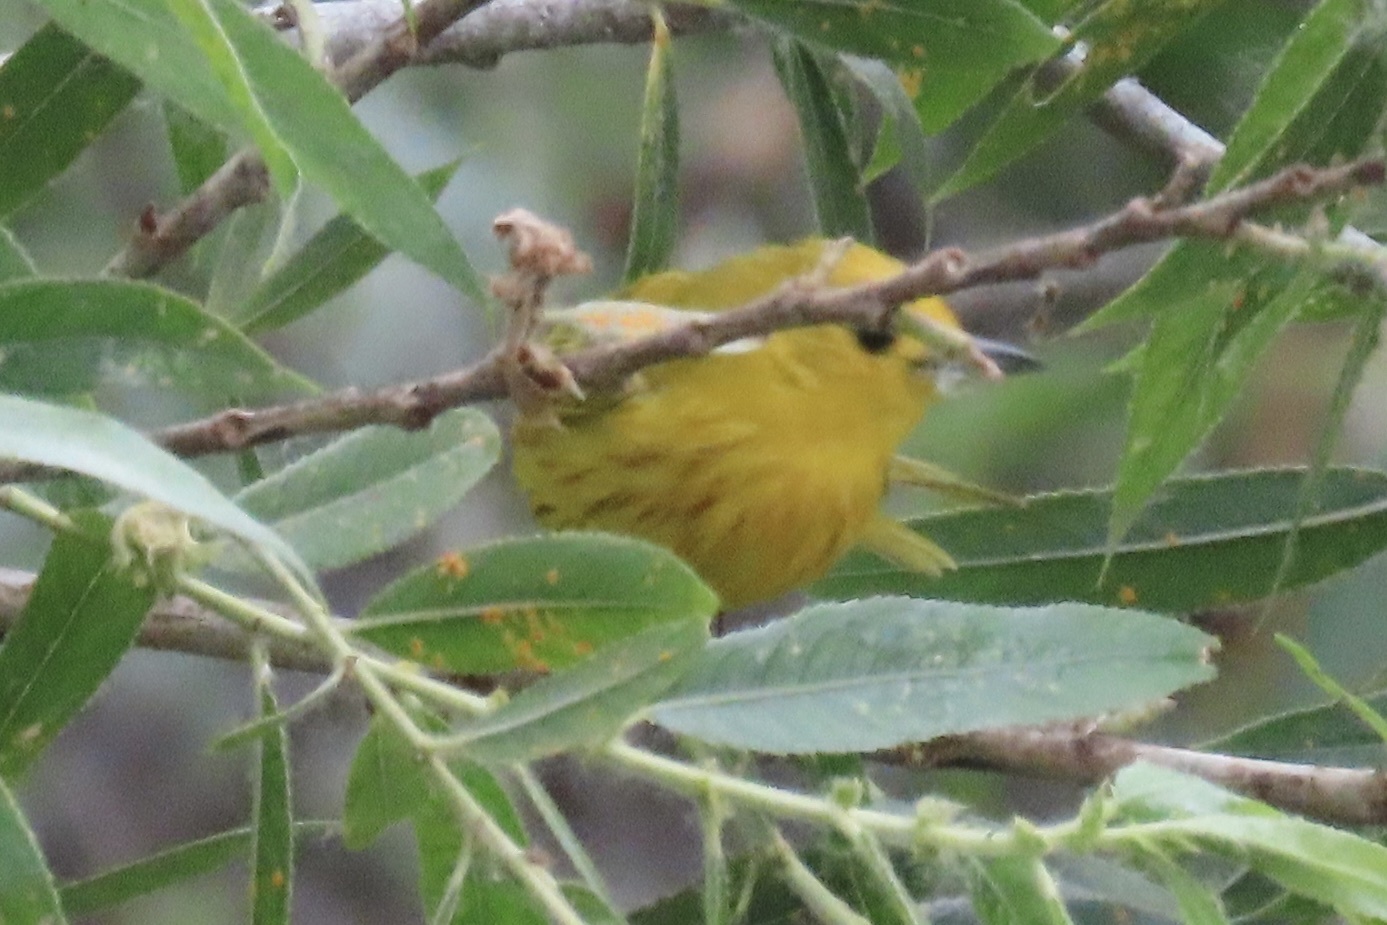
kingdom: Animalia
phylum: Chordata
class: Aves
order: Passeriformes
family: Parulidae
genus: Setophaga
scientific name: Setophaga petechia
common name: Yellow warbler
